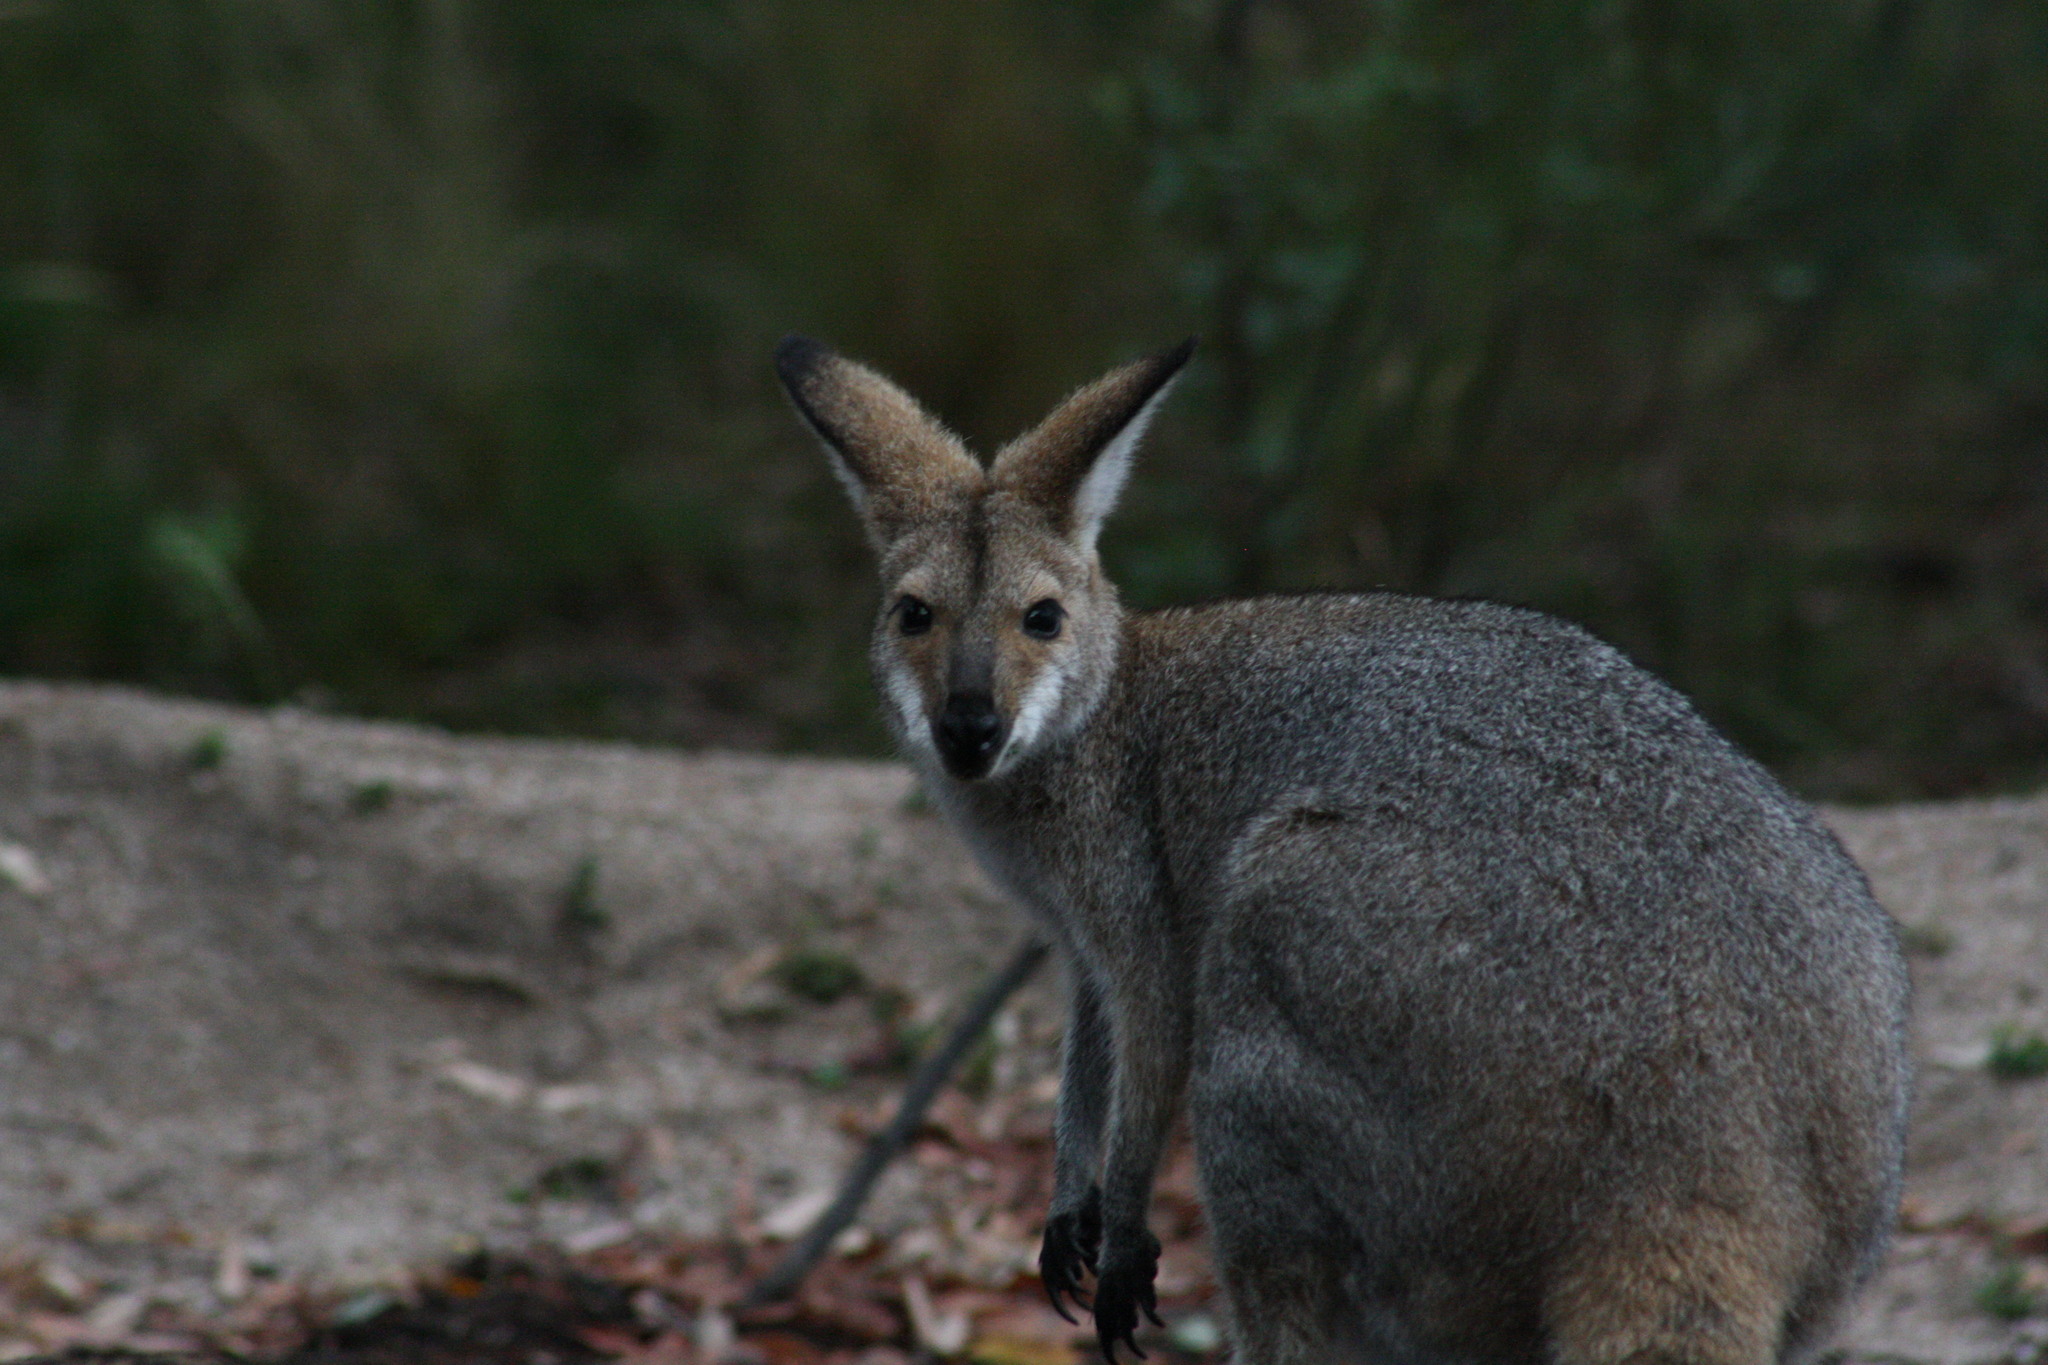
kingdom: Animalia
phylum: Chordata
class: Mammalia
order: Diprotodontia
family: Macropodidae
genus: Notamacropus
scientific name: Notamacropus rufogriseus
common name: Red-necked wallaby
